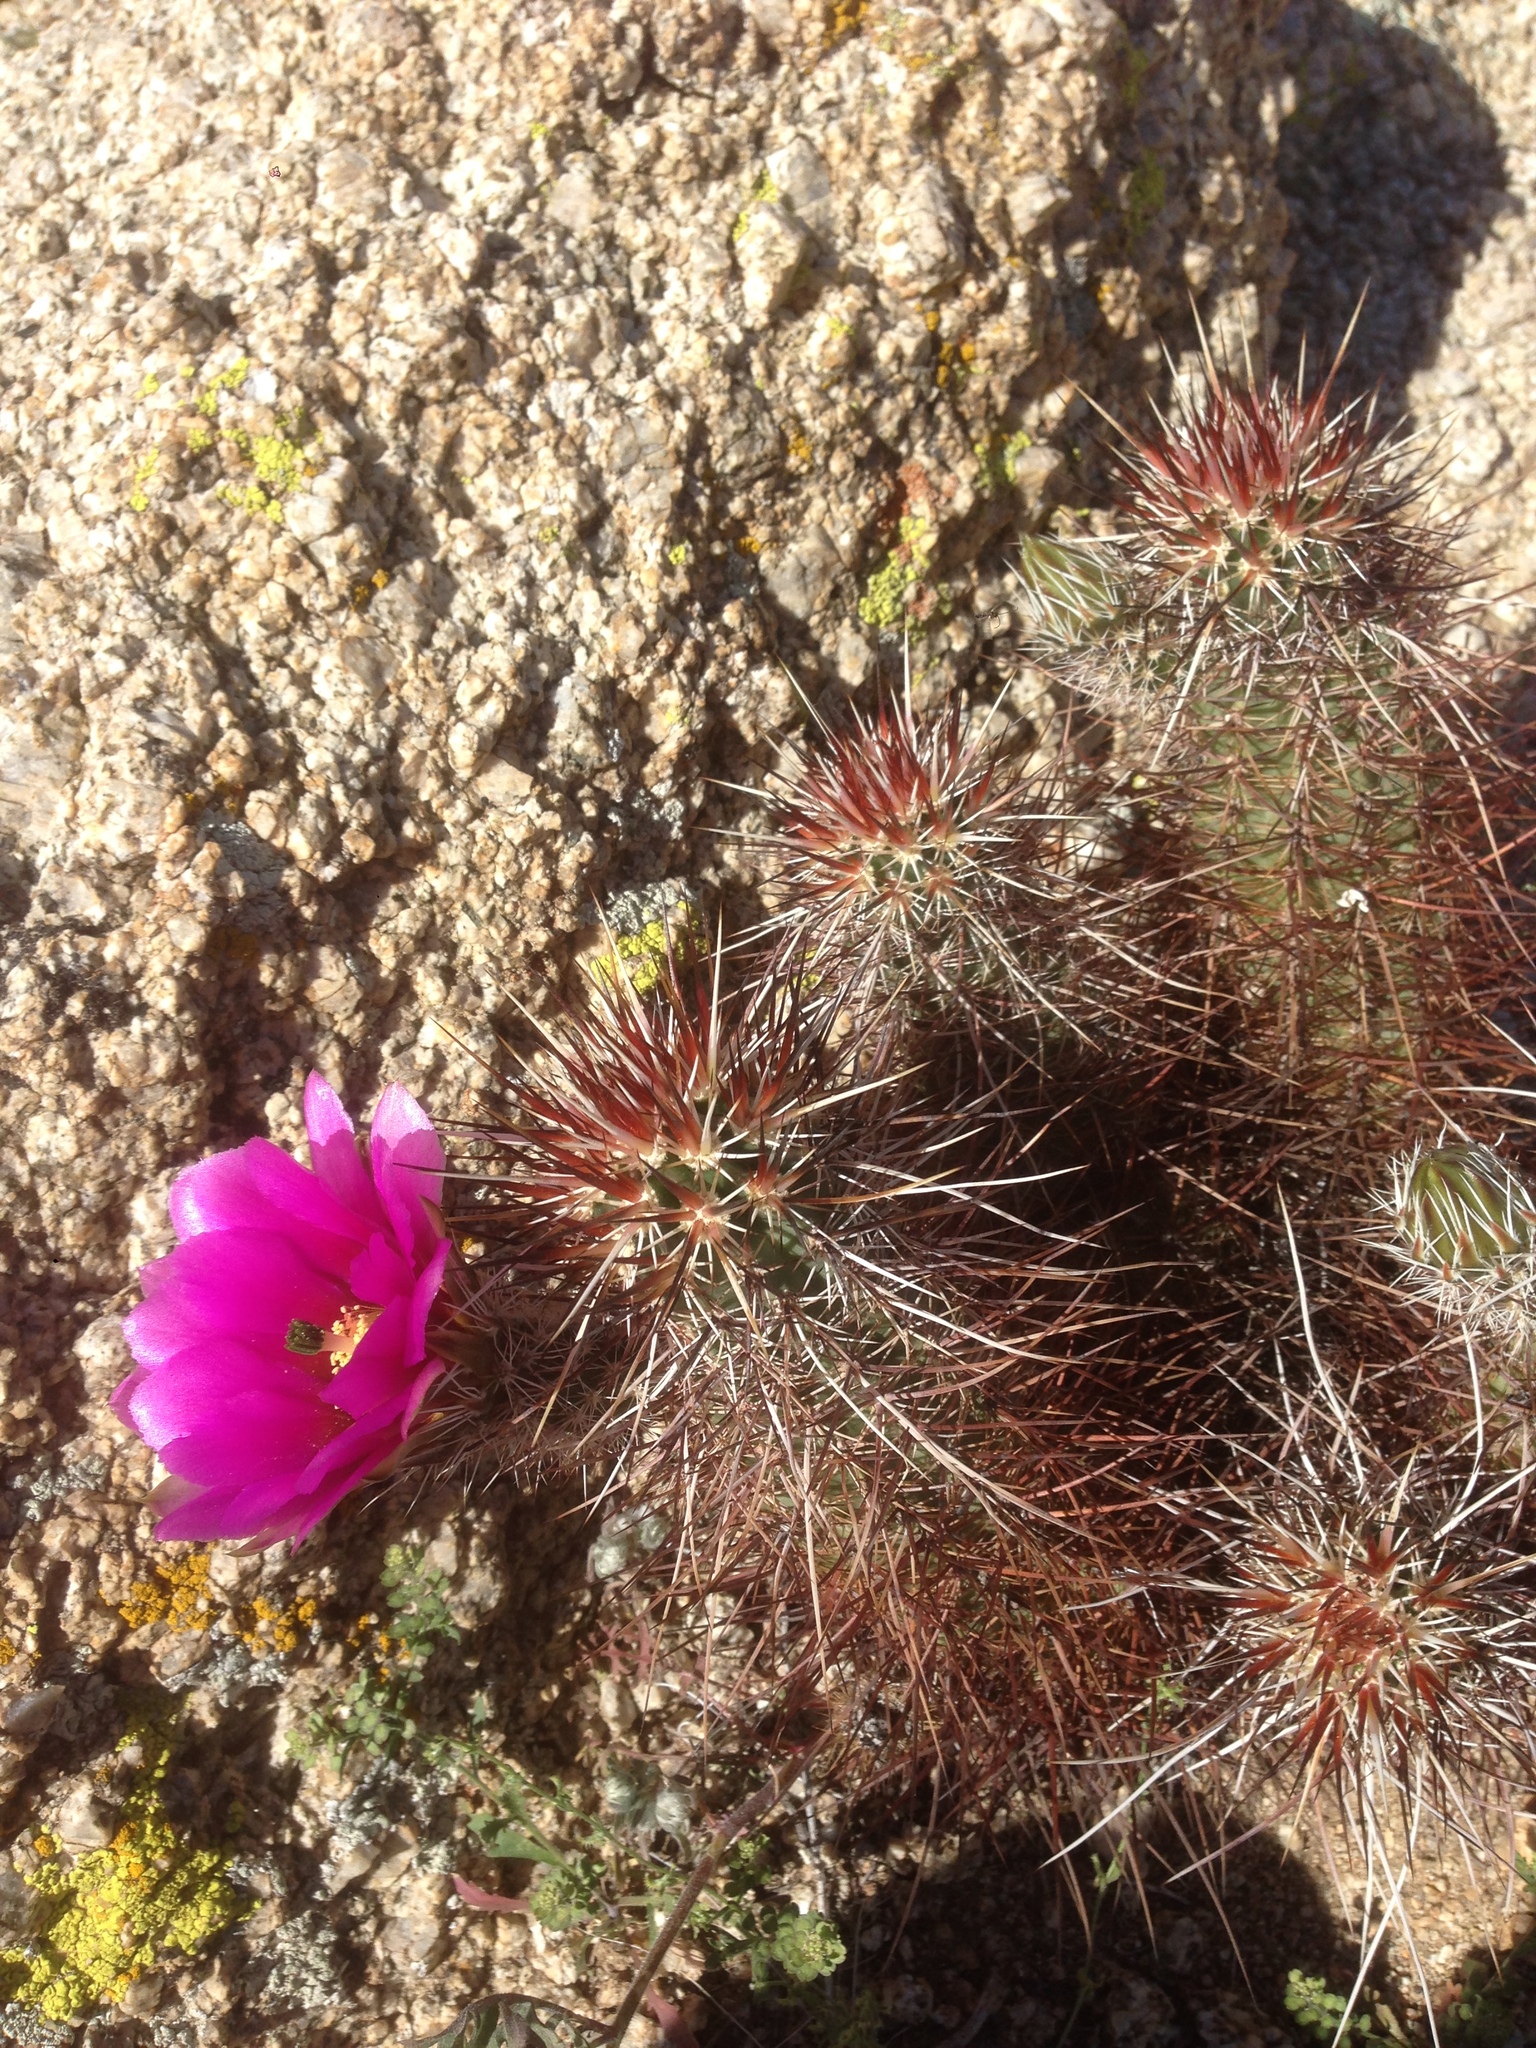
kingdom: Plantae
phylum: Tracheophyta
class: Magnoliopsida
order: Caryophyllales
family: Cactaceae
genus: Echinocereus
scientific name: Echinocereus engelmannii
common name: Engelmann's hedgehog cactus
